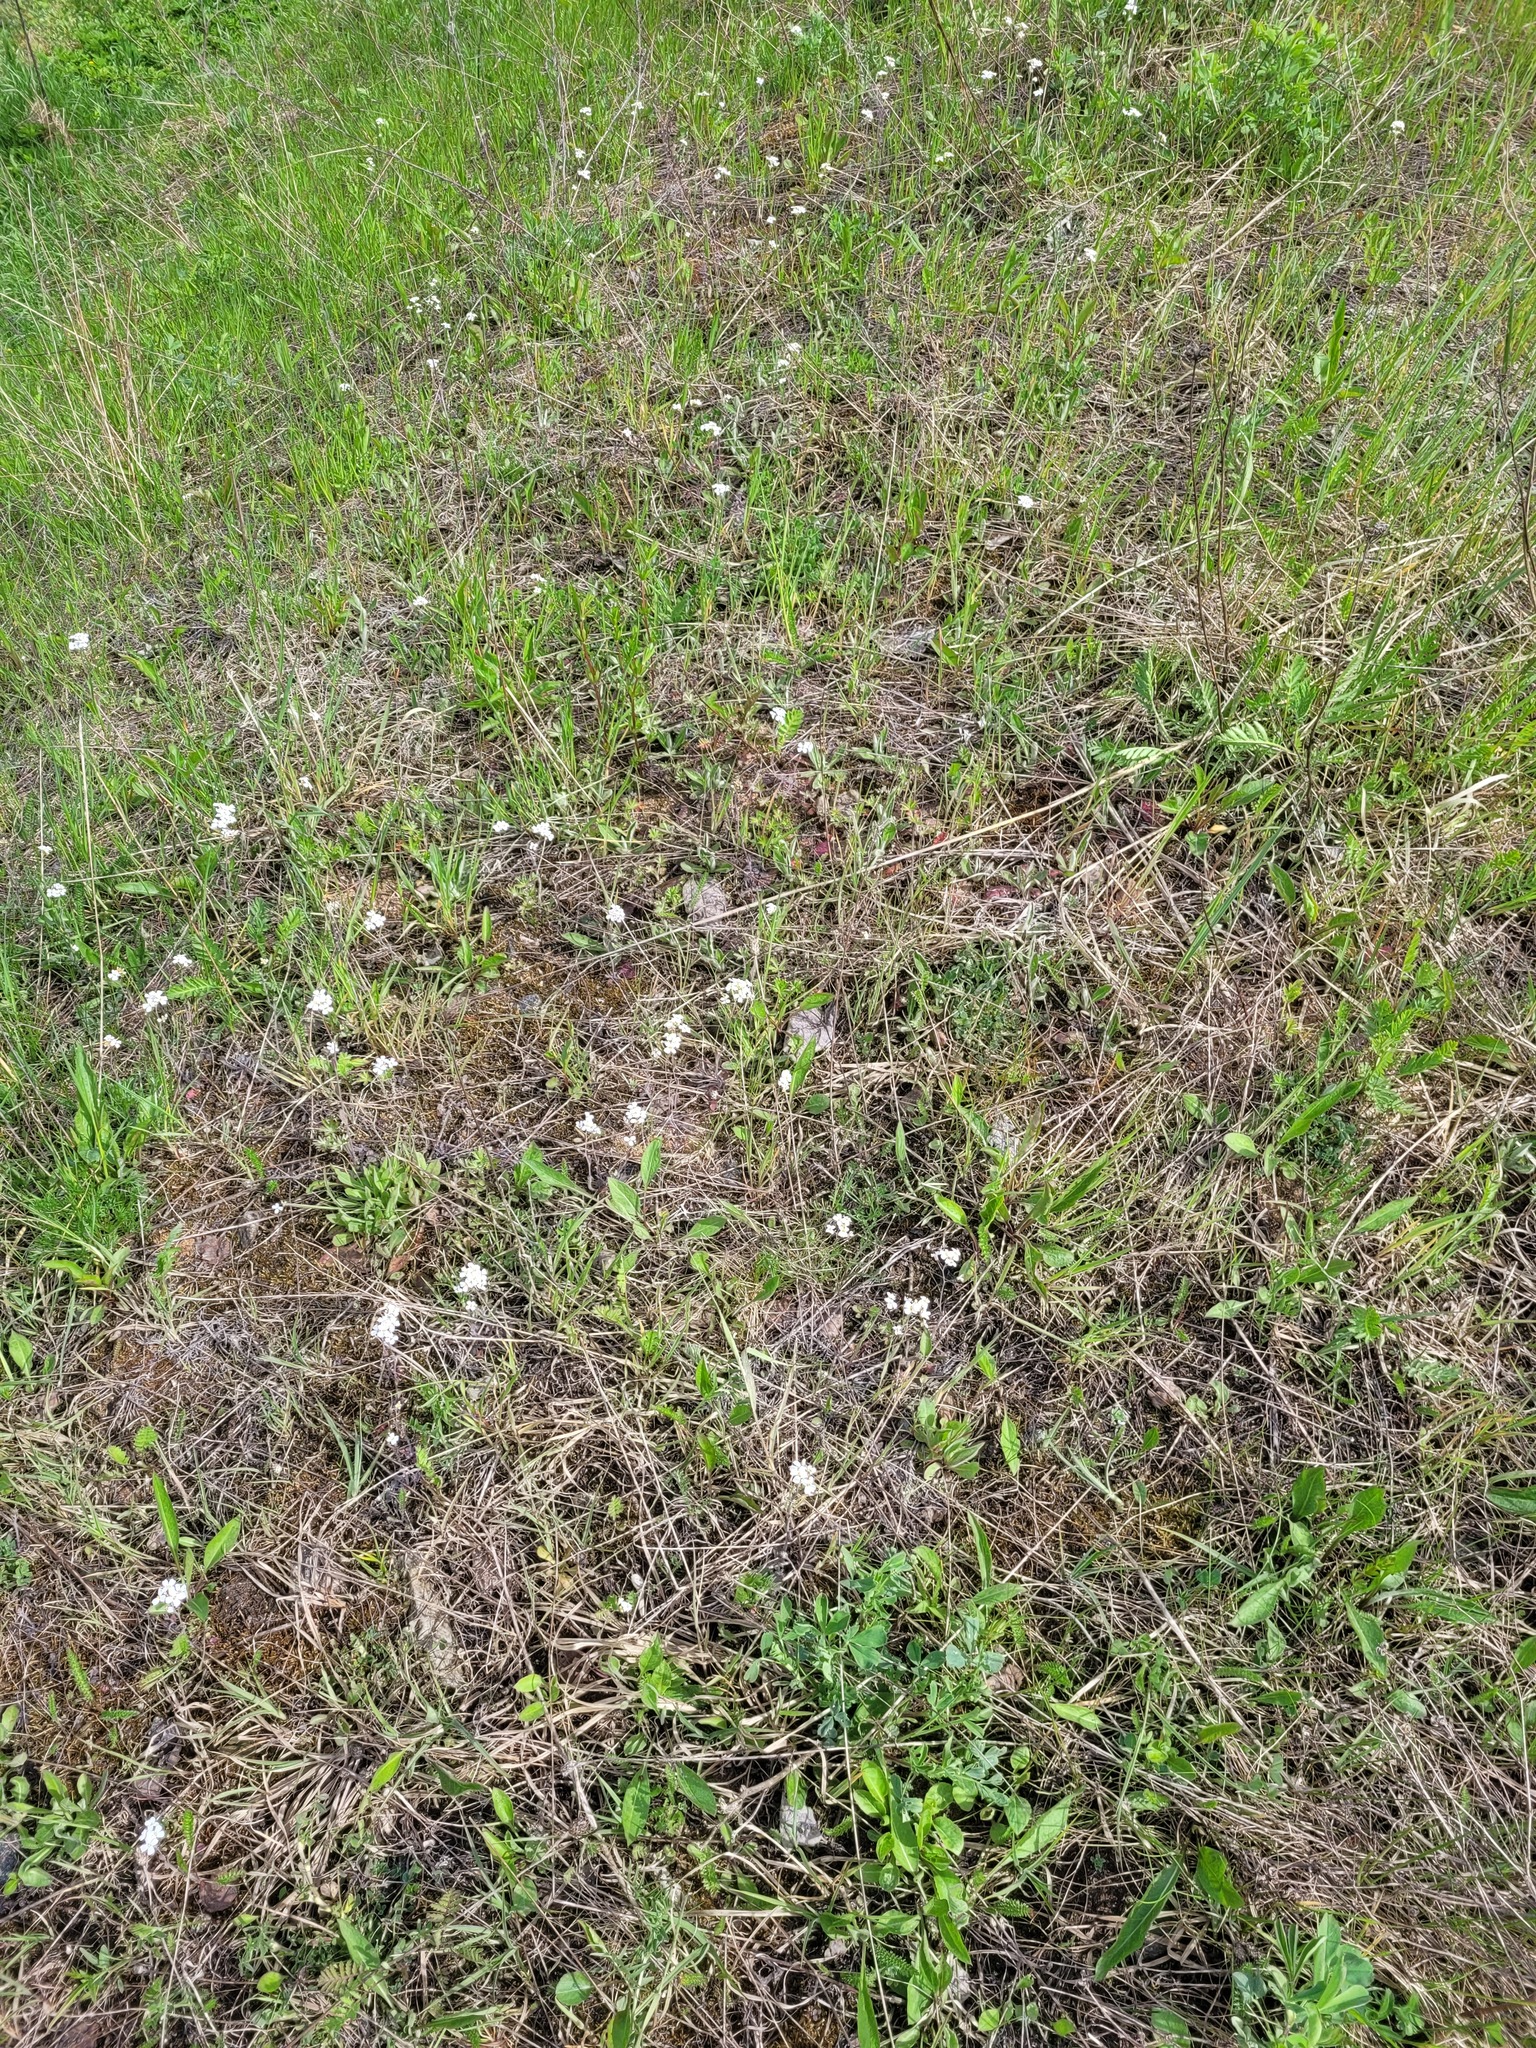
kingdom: Plantae
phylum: Tracheophyta
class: Magnoliopsida
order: Brassicales
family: Brassicaceae
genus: Arabidopsis
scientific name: Arabidopsis arenosa
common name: Sand rock-cress
